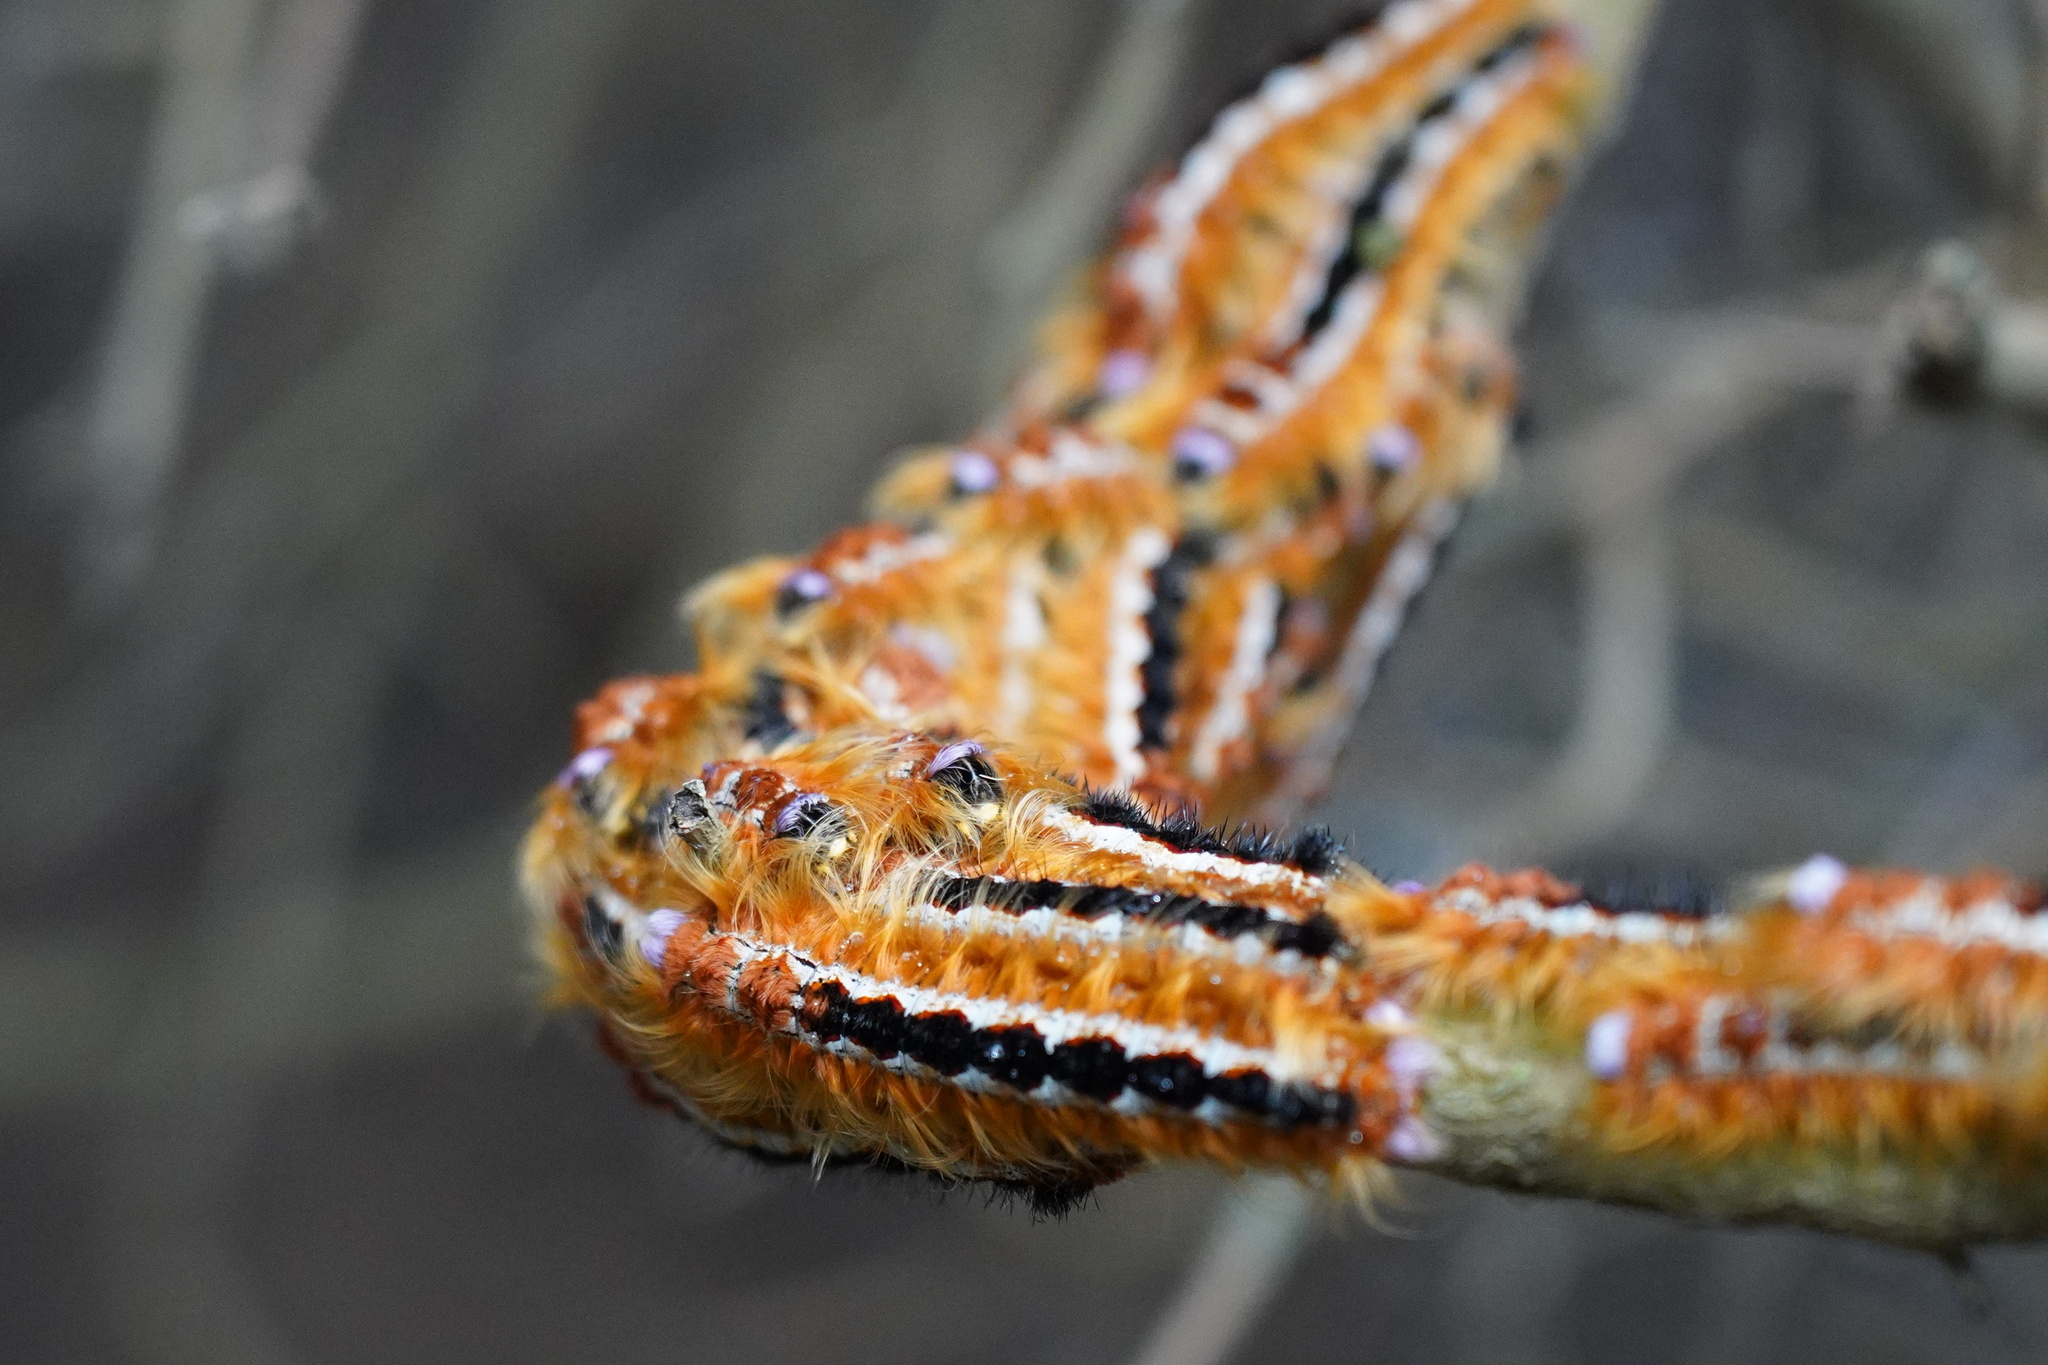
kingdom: Animalia
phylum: Arthropoda
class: Insecta
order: Lepidoptera
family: Lasiocampidae
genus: Eutricha
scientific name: Eutricha capensis
